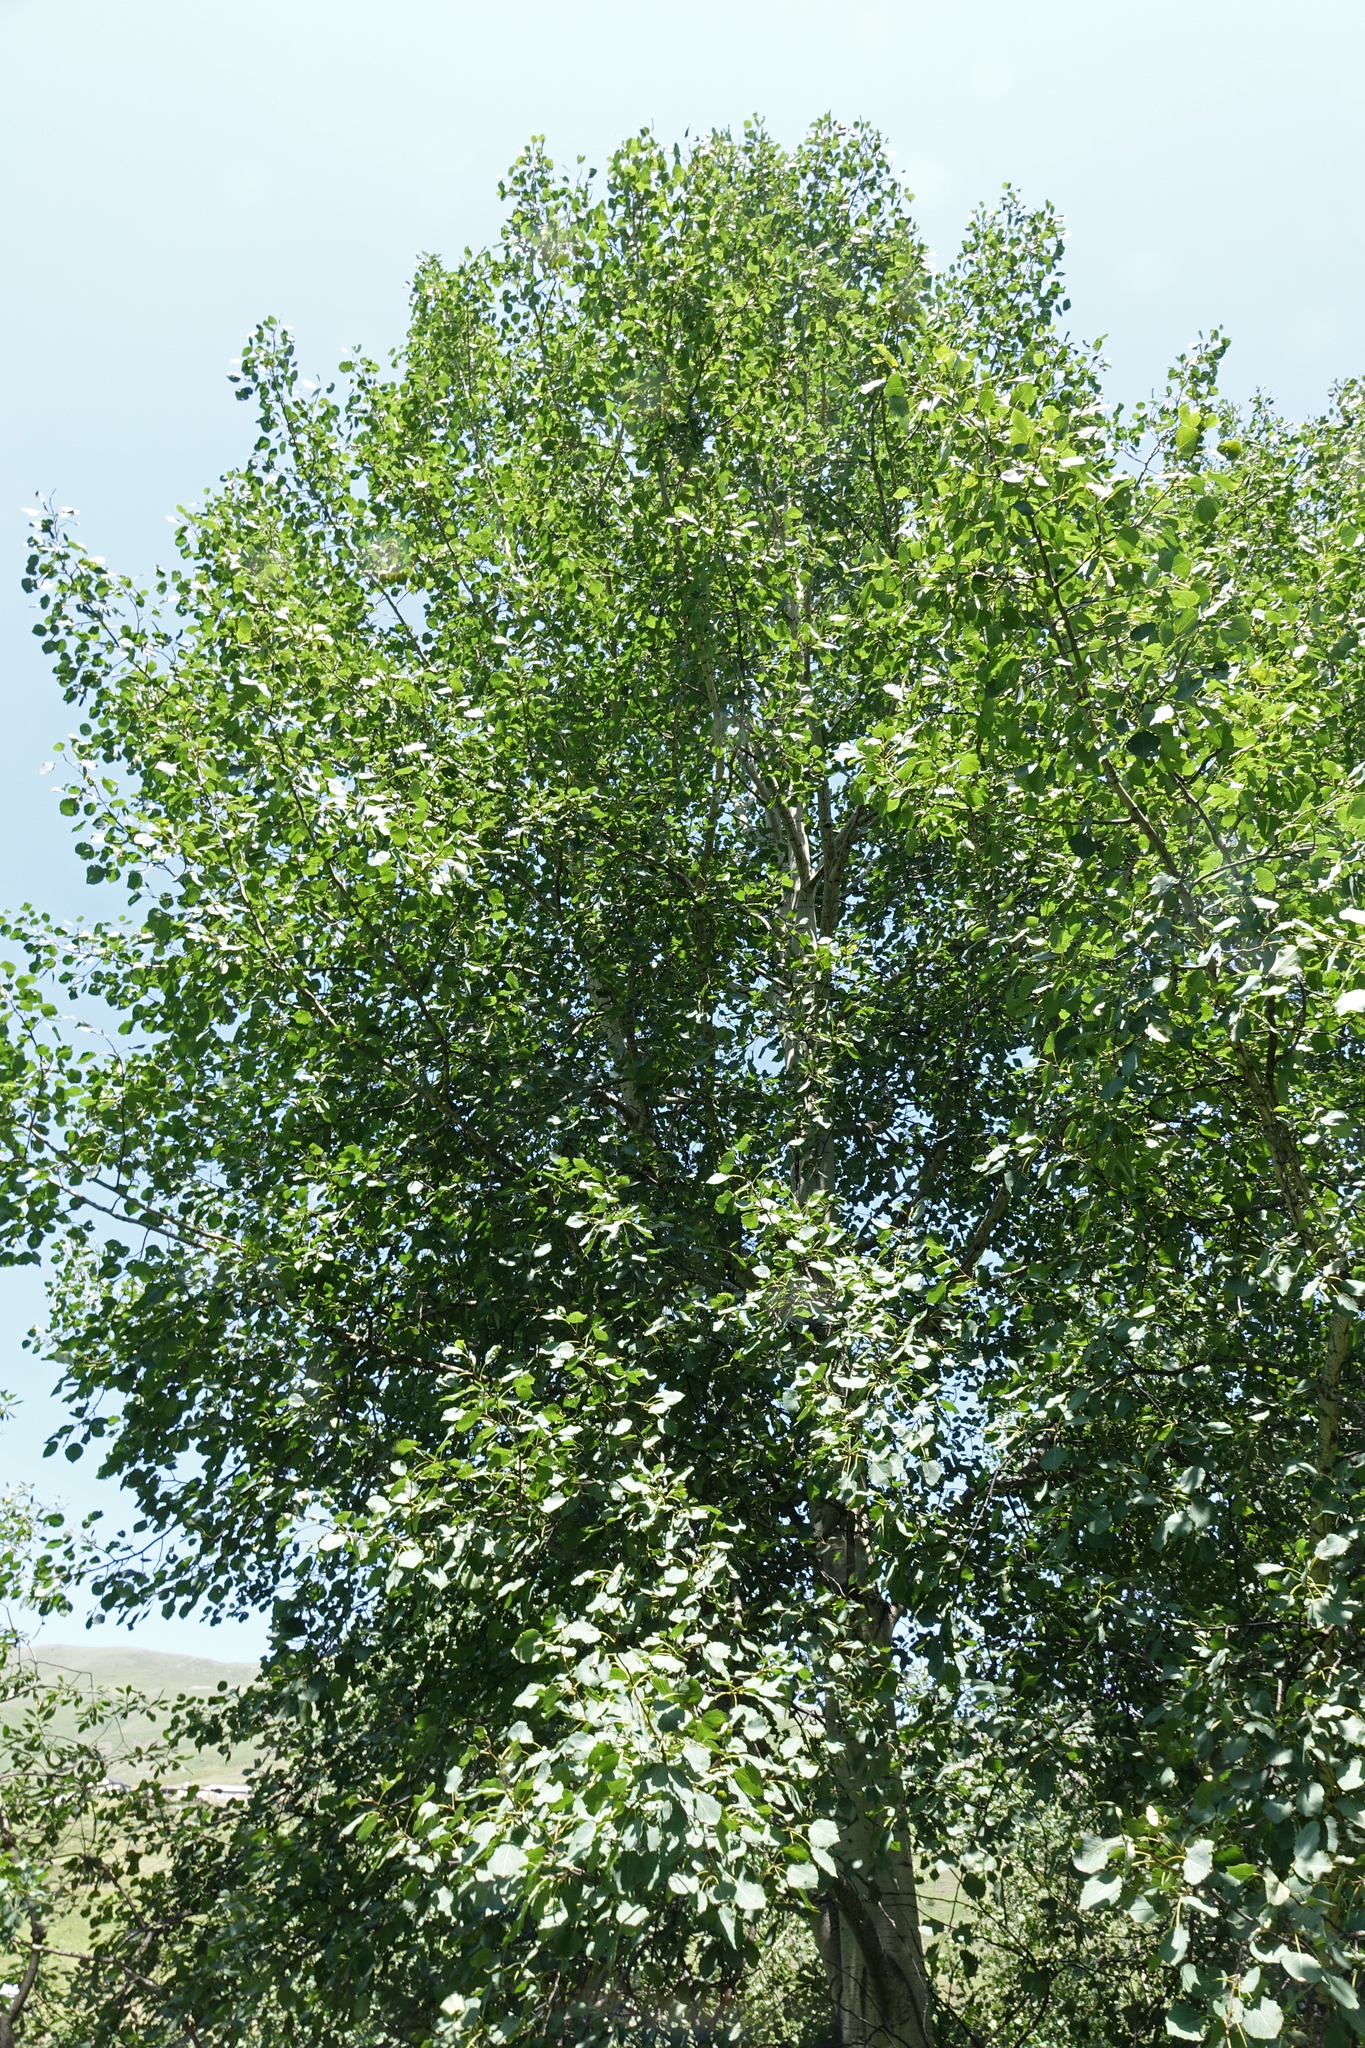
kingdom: Plantae
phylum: Tracheophyta
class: Magnoliopsida
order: Malpighiales
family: Salicaceae
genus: Populus
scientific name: Populus tremula
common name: European aspen
